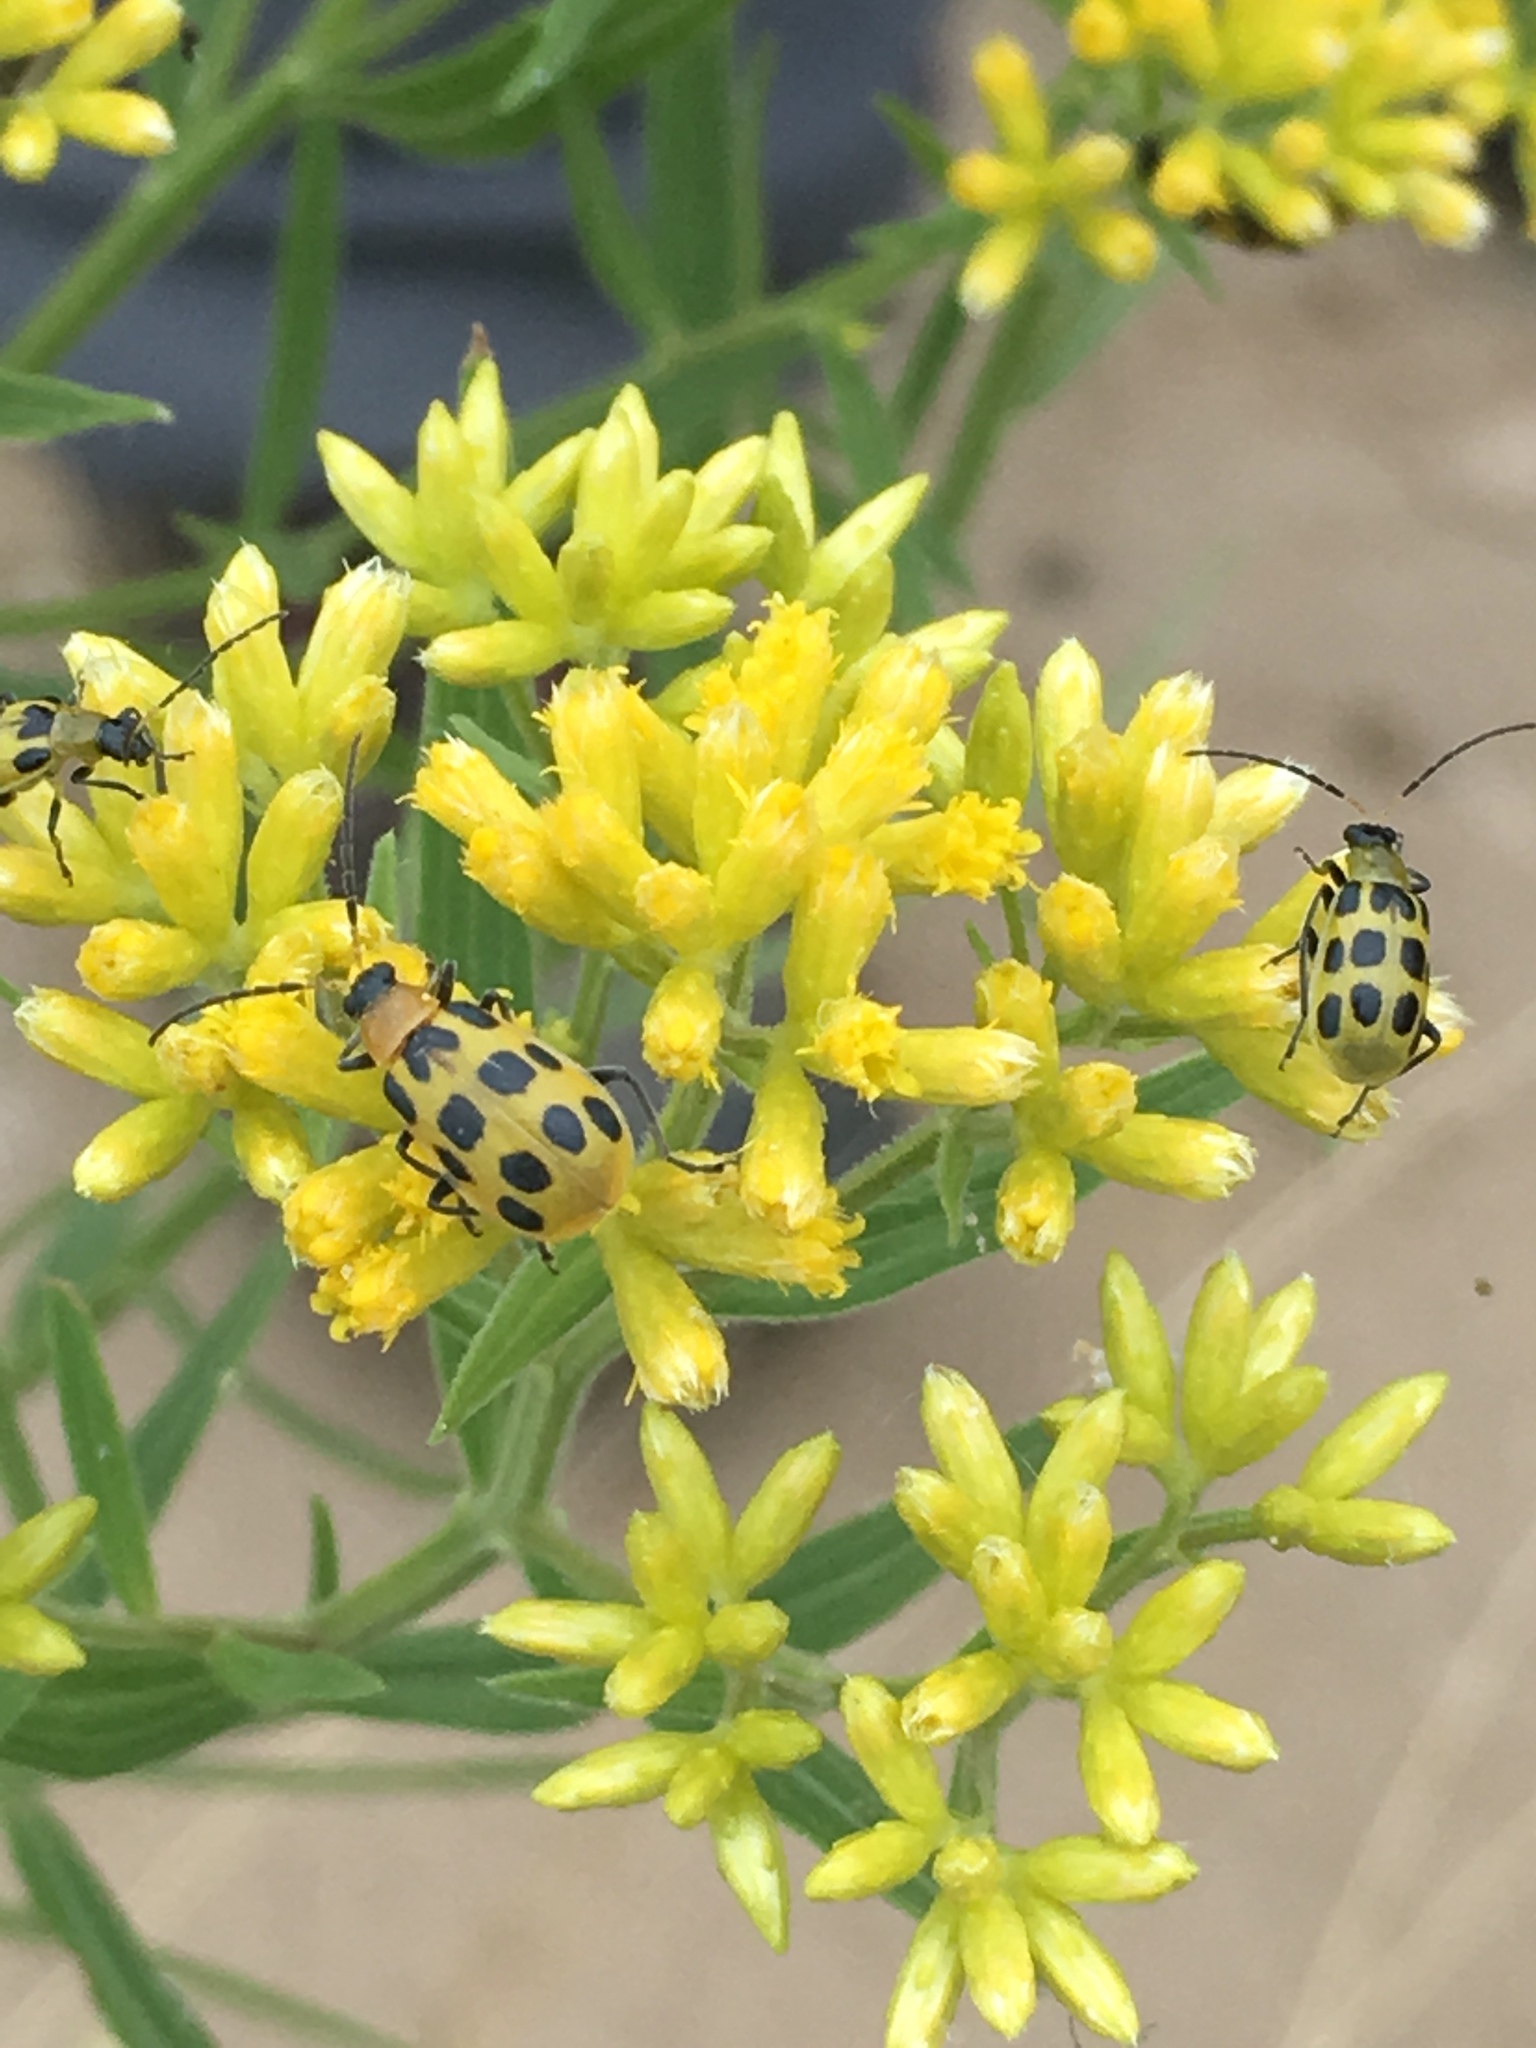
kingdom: Animalia
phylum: Arthropoda
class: Insecta
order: Coleoptera
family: Chrysomelidae
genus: Diabrotica
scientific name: Diabrotica undecimpunctata
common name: Spotted cucumber beetle
